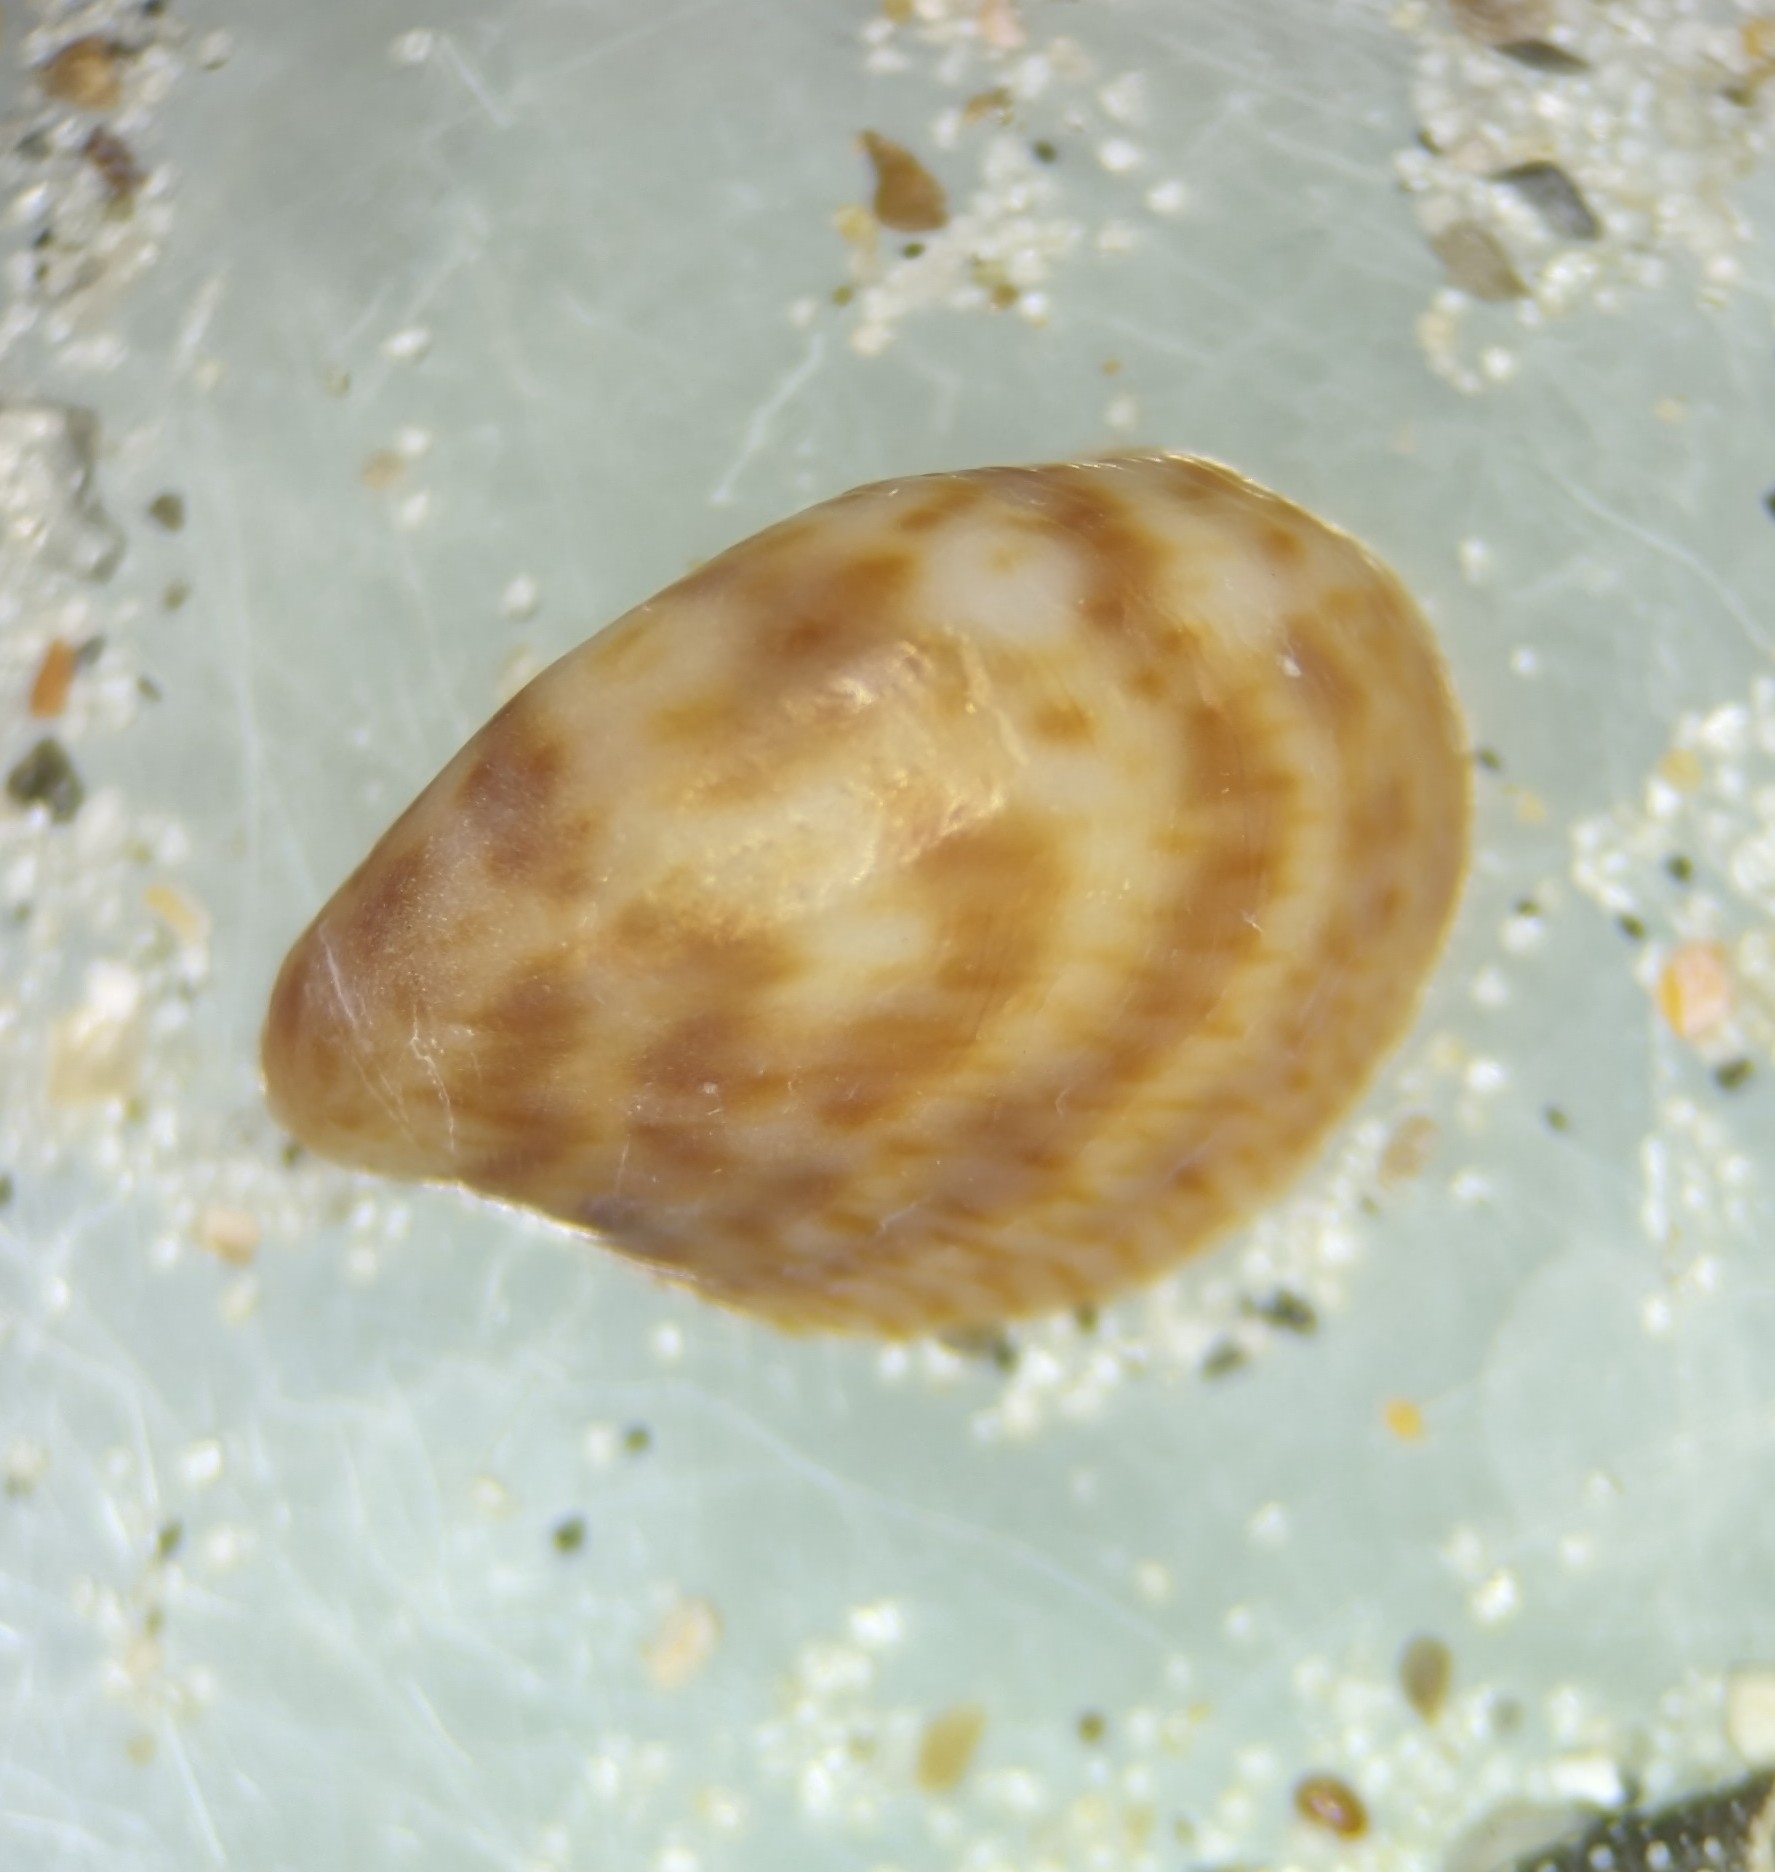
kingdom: Animalia
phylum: Mollusca
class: Gastropoda
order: Littorinimorpha
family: Calyptraeidae
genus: Crepidula
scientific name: Crepidula maculosa
